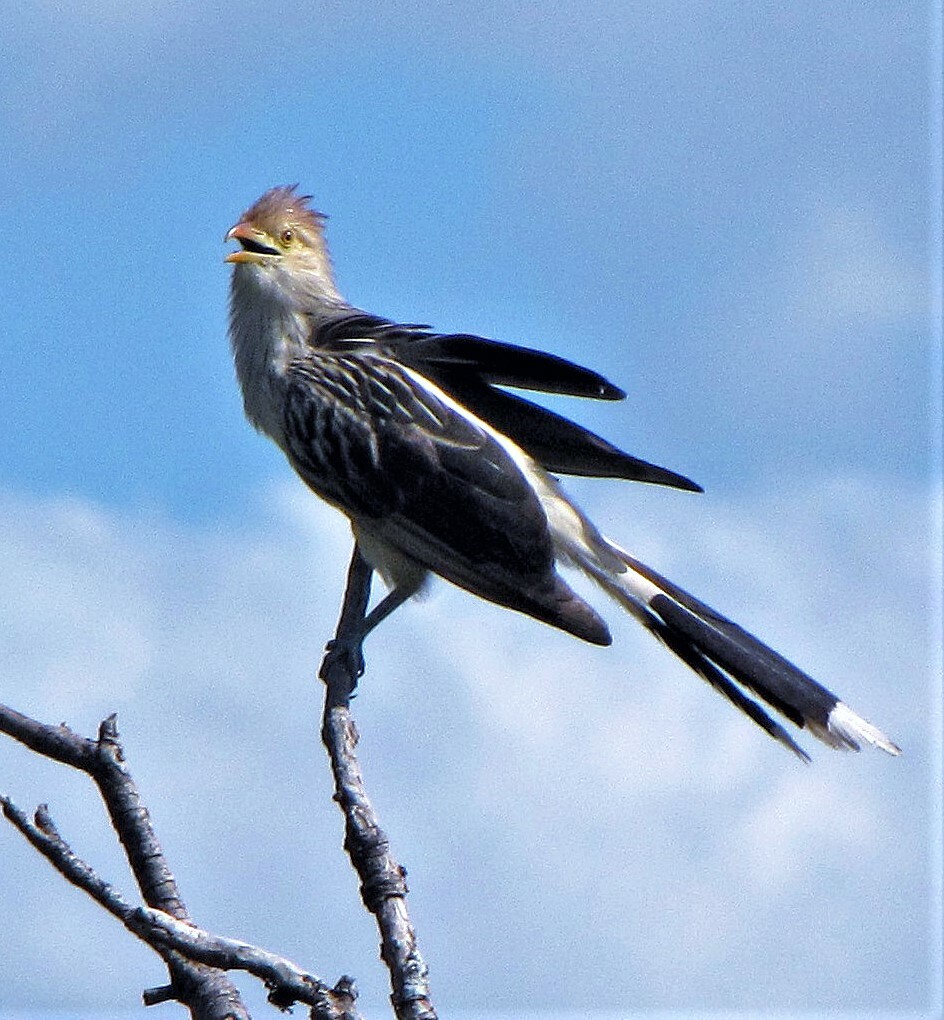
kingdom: Animalia
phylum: Chordata
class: Aves
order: Cuculiformes
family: Cuculidae
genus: Guira
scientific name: Guira guira
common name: Guira cuckoo
